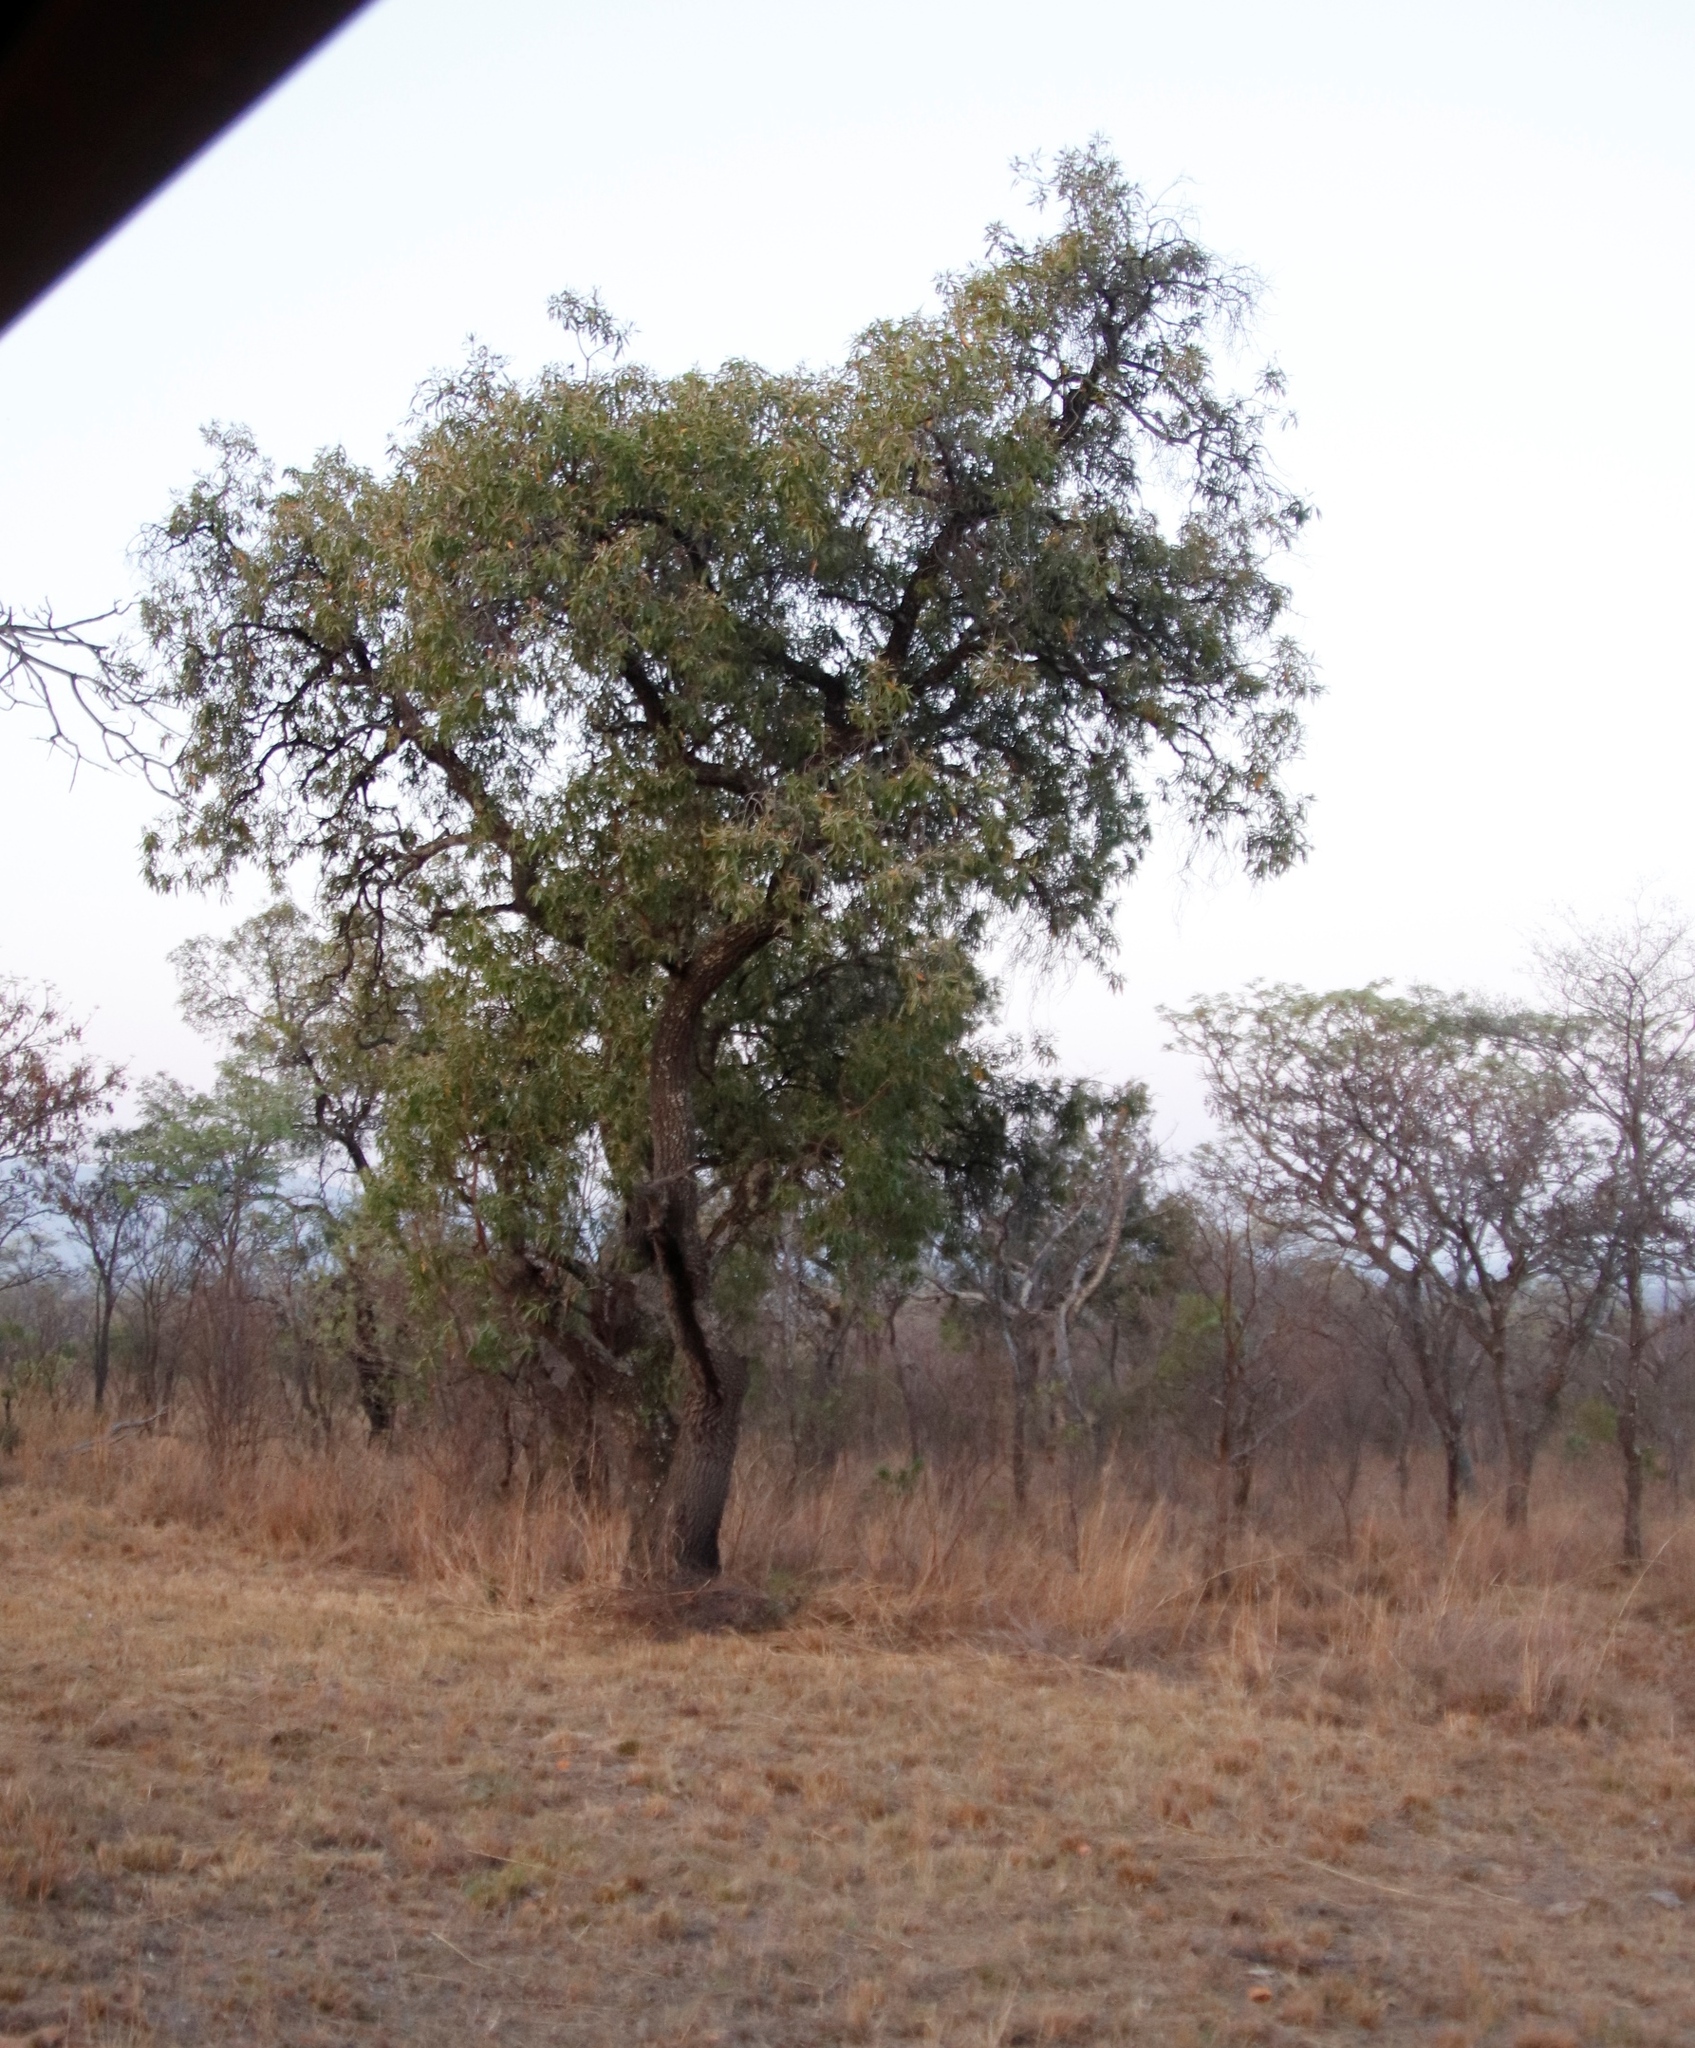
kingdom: Plantae
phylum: Tracheophyta
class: Magnoliopsida
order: Proteales
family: Proteaceae
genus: Faurea
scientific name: Faurea saligna
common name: African bean
